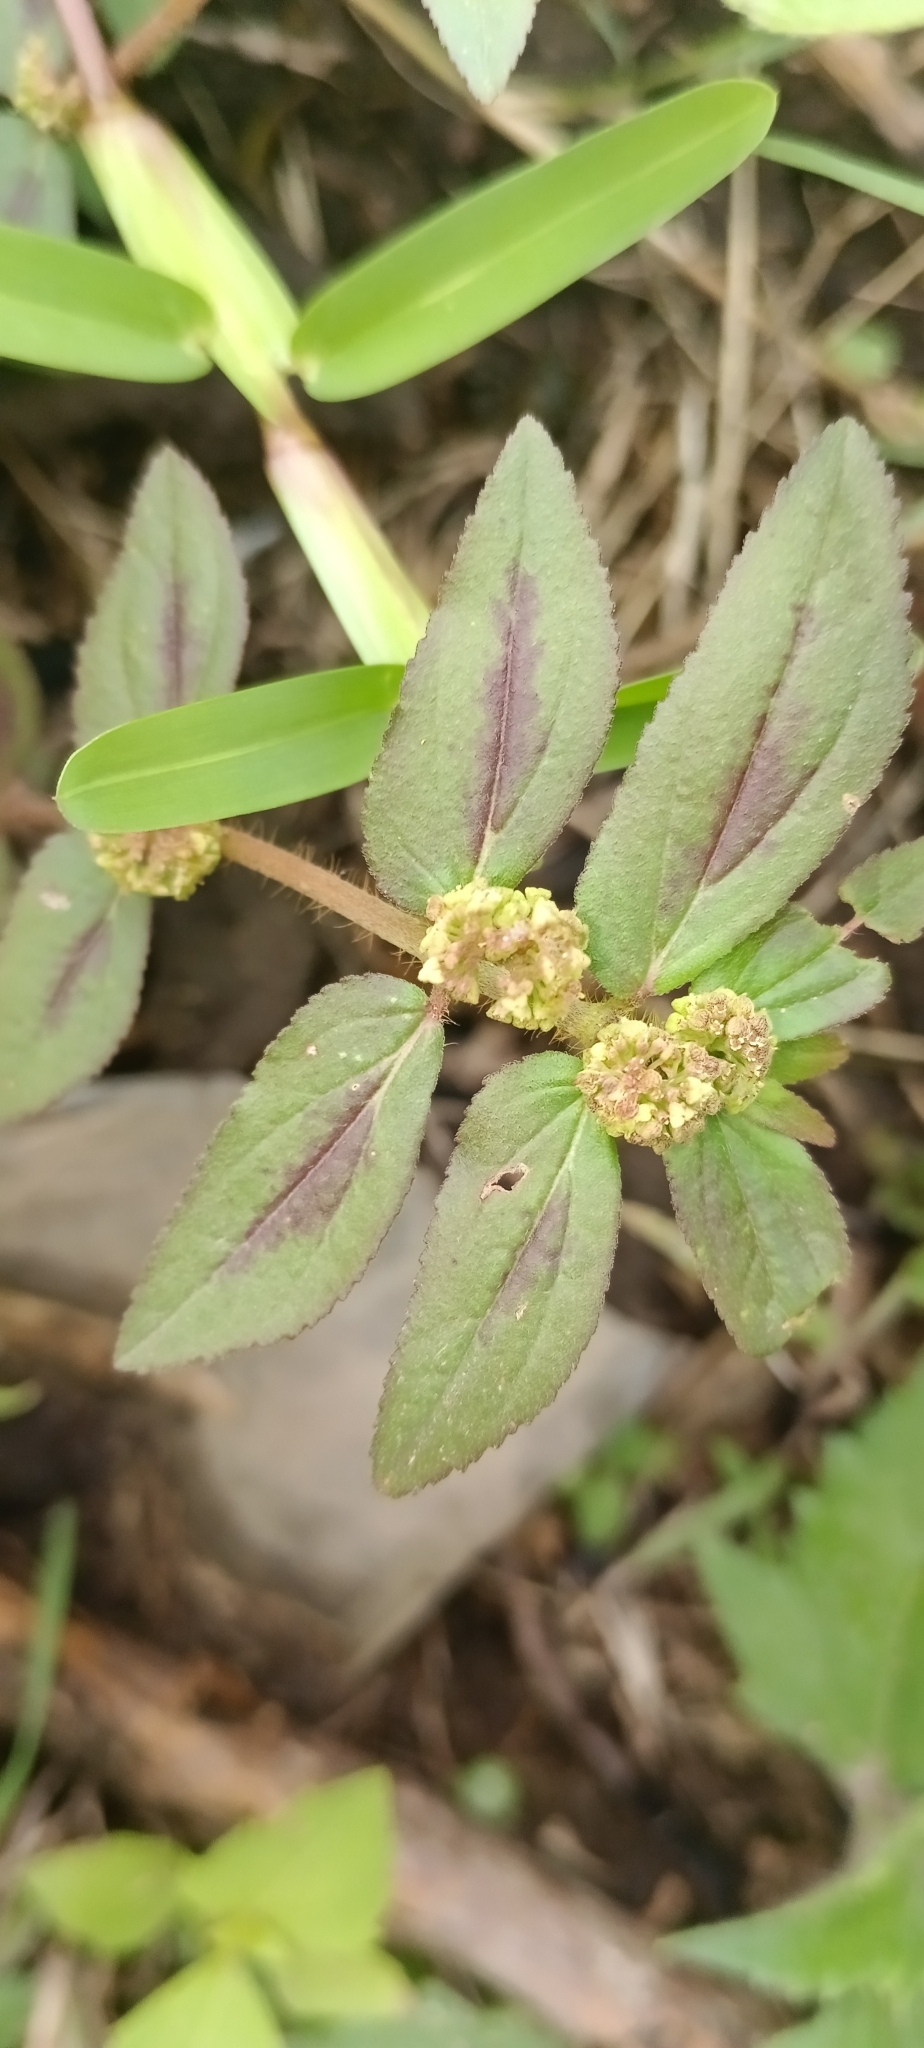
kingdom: Plantae
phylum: Tracheophyta
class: Magnoliopsida
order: Malpighiales
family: Euphorbiaceae
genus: Euphorbia
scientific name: Euphorbia hirta
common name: Pillpod sandmat
